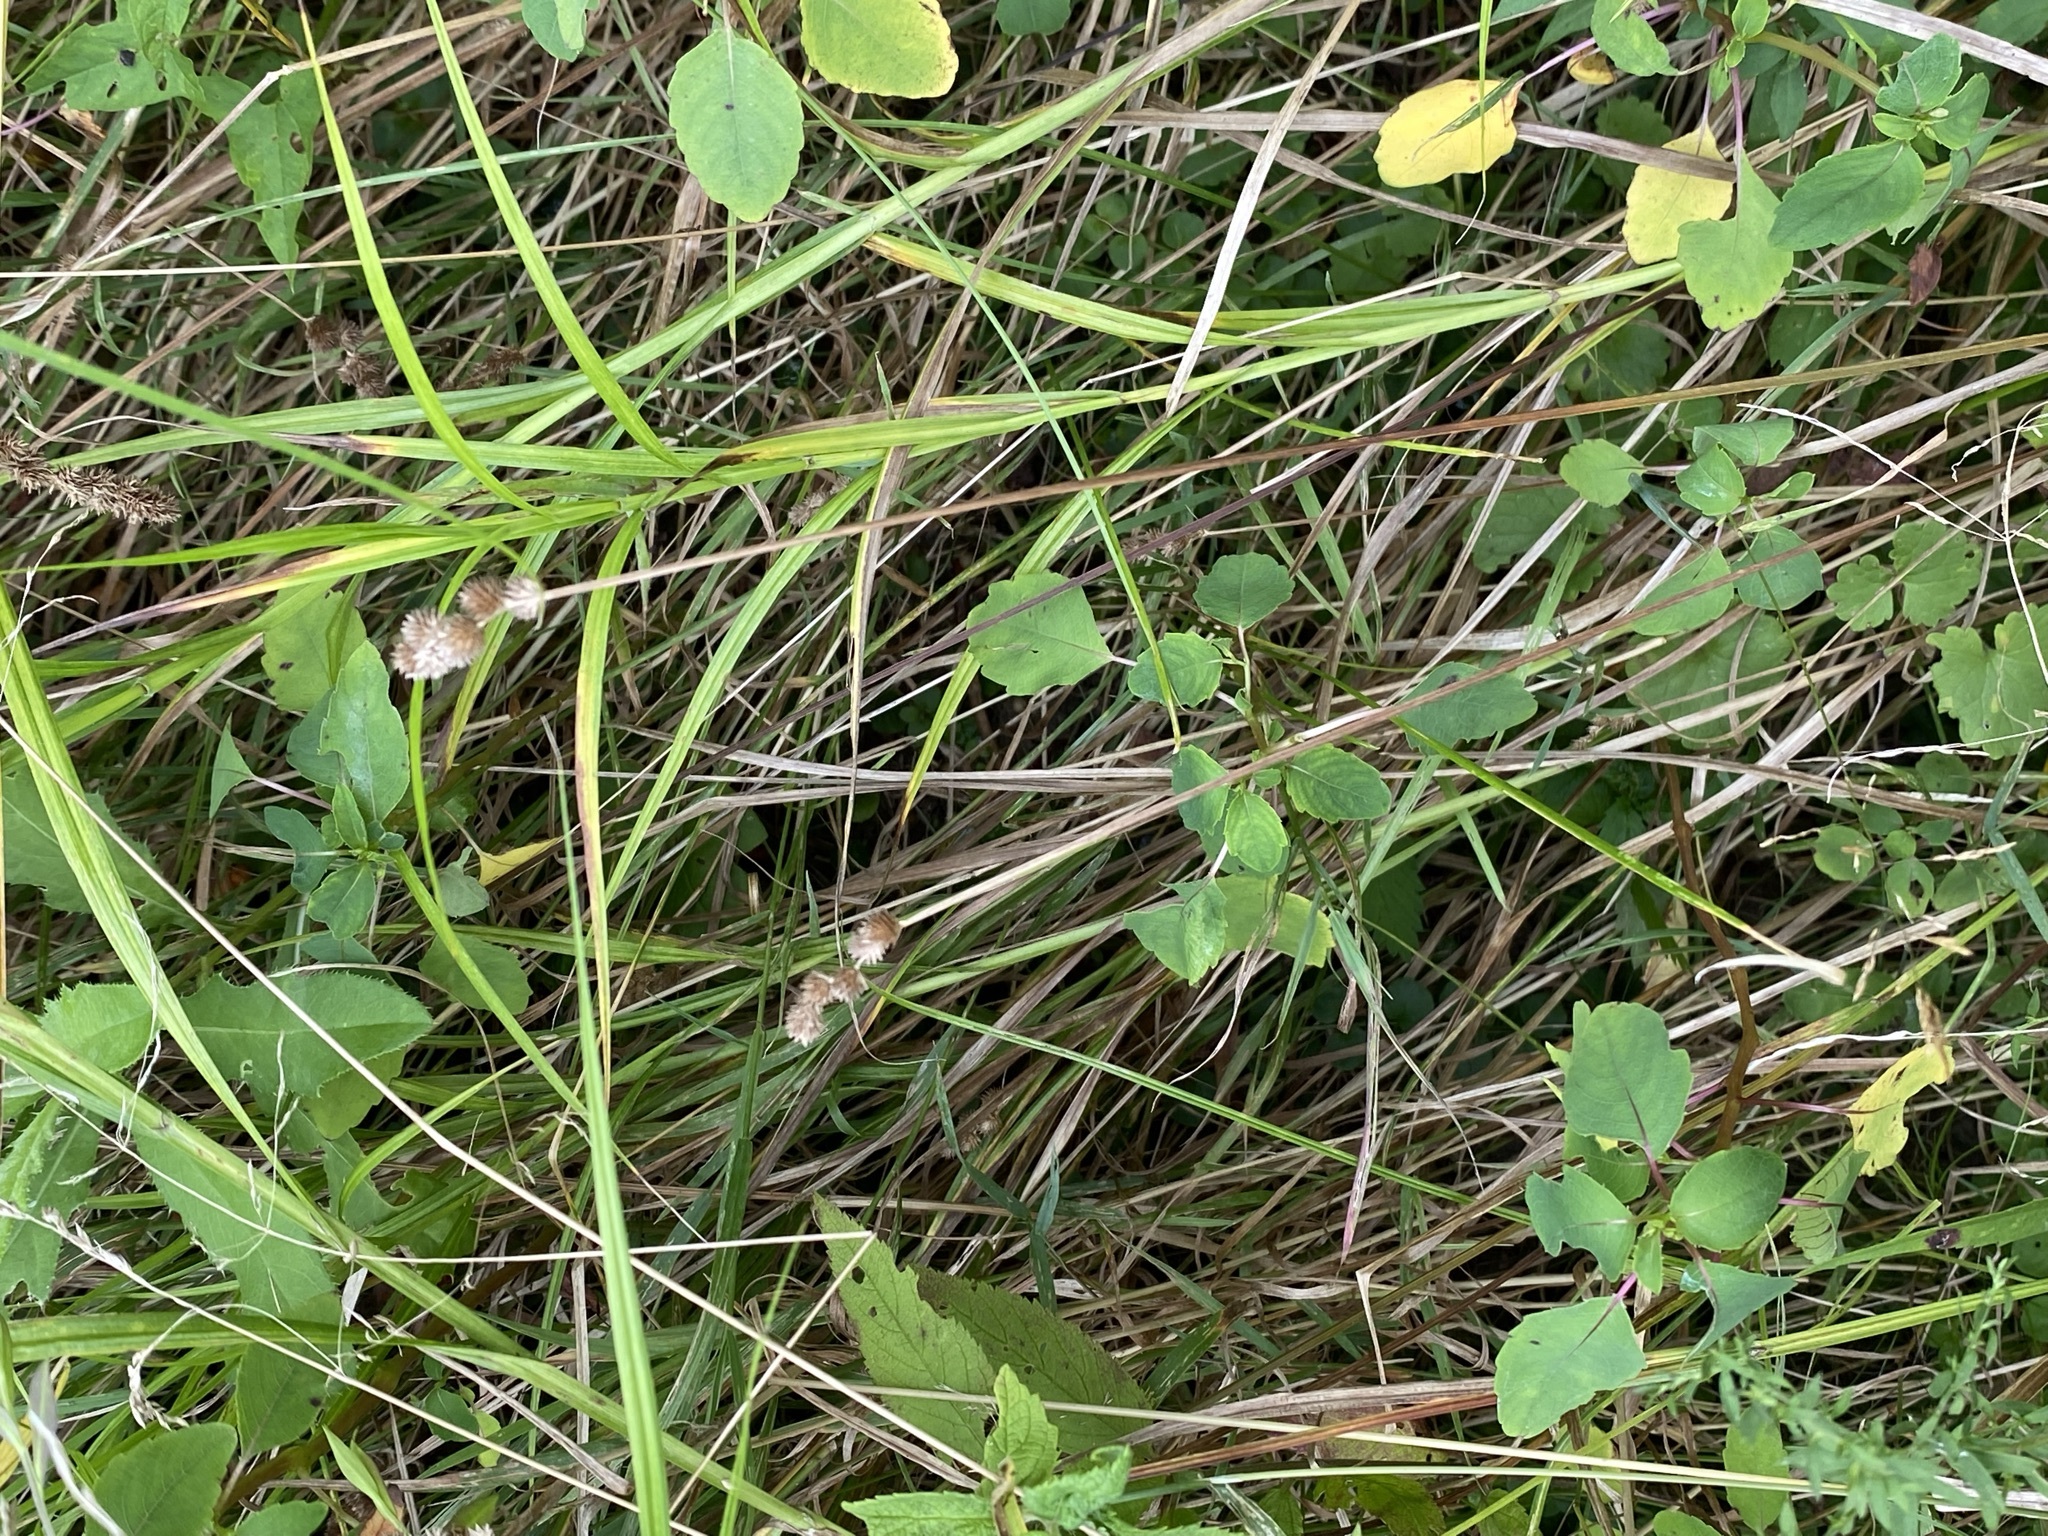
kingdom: Plantae
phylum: Tracheophyta
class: Liliopsida
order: Poales
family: Cyperaceae
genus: Carex
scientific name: Carex cristatella
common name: Crested oval sedge
